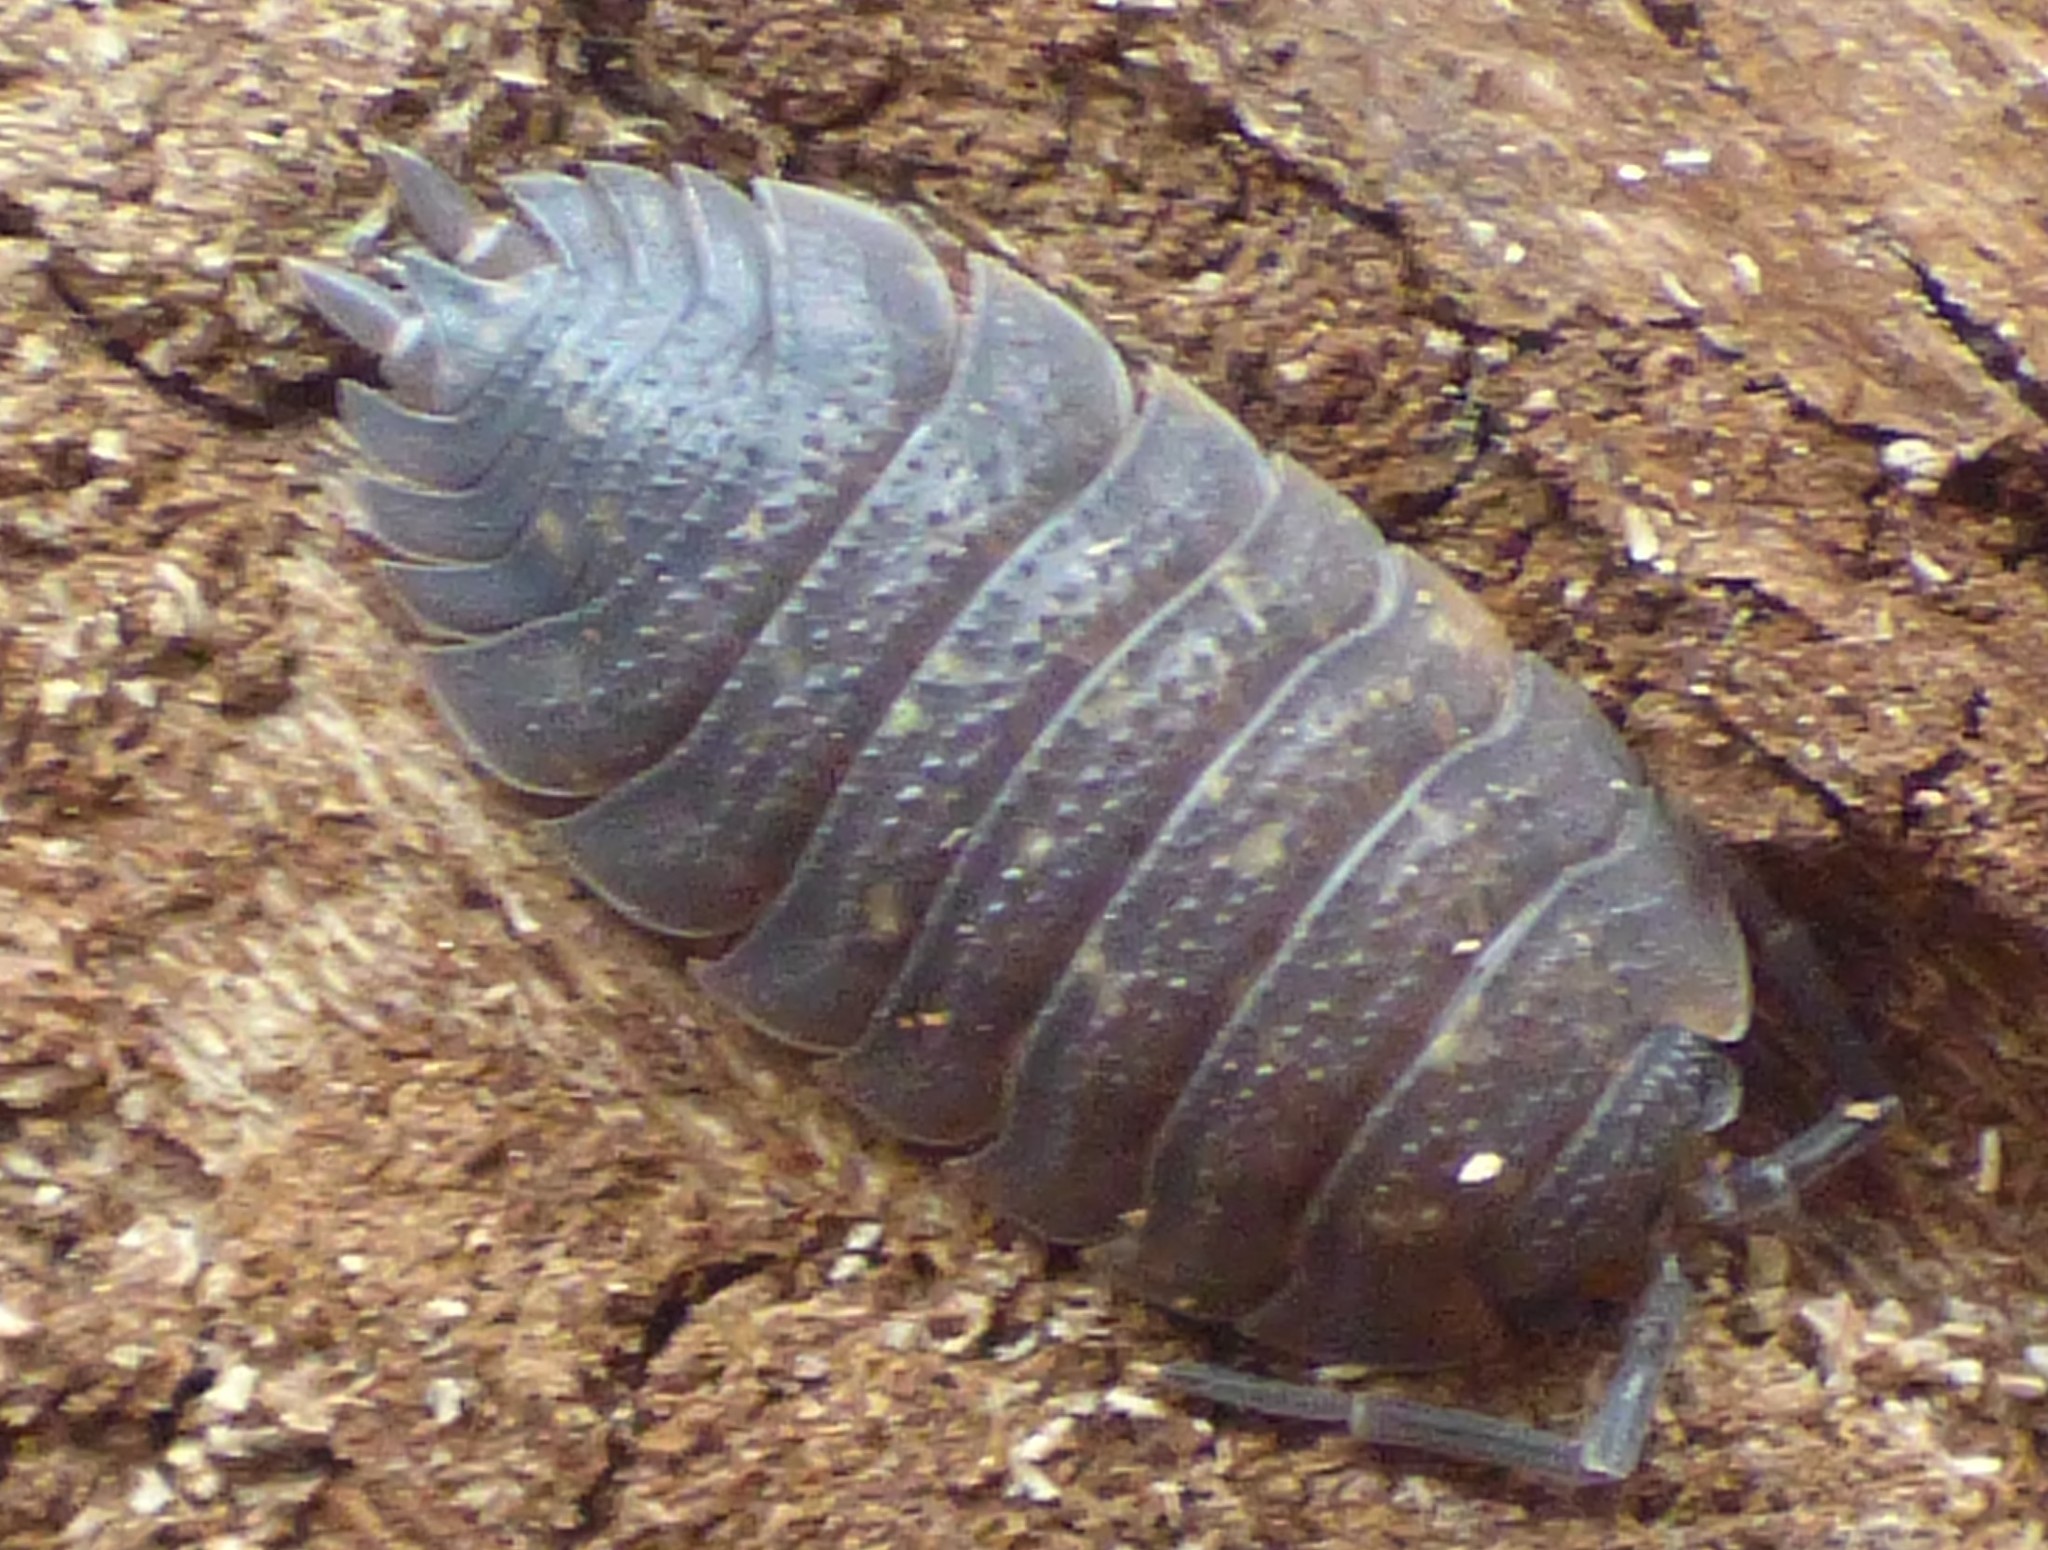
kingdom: Animalia
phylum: Arthropoda
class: Malacostraca
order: Isopoda
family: Porcellionidae
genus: Porcellio
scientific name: Porcellio scaber
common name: Common rough woodlouse
